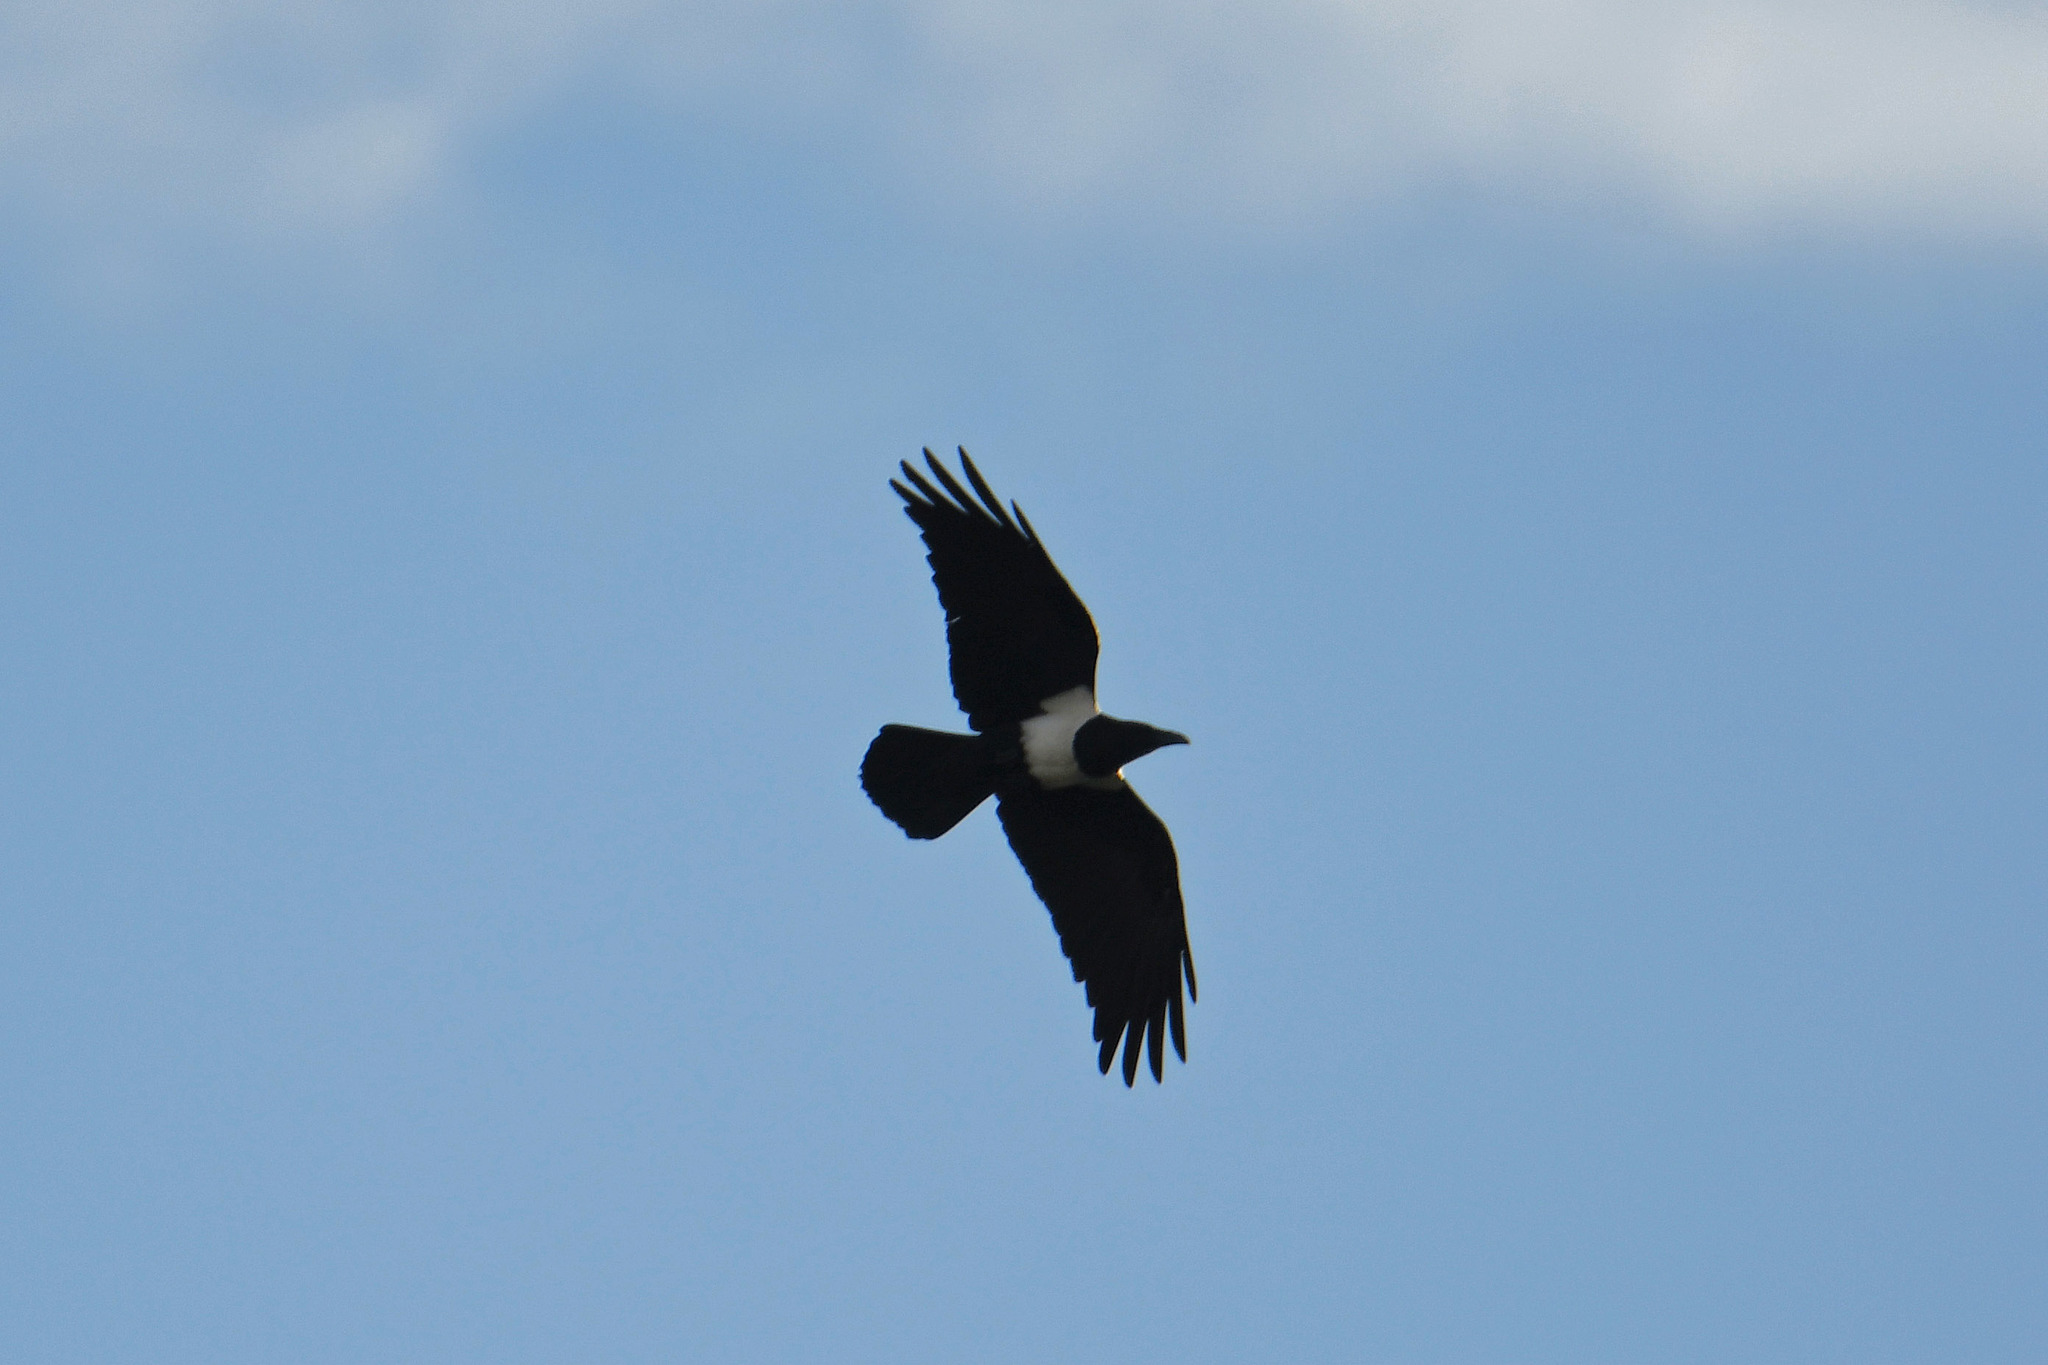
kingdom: Animalia
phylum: Chordata
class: Aves
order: Passeriformes
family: Corvidae
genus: Corvus
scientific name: Corvus albus
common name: Pied crow
